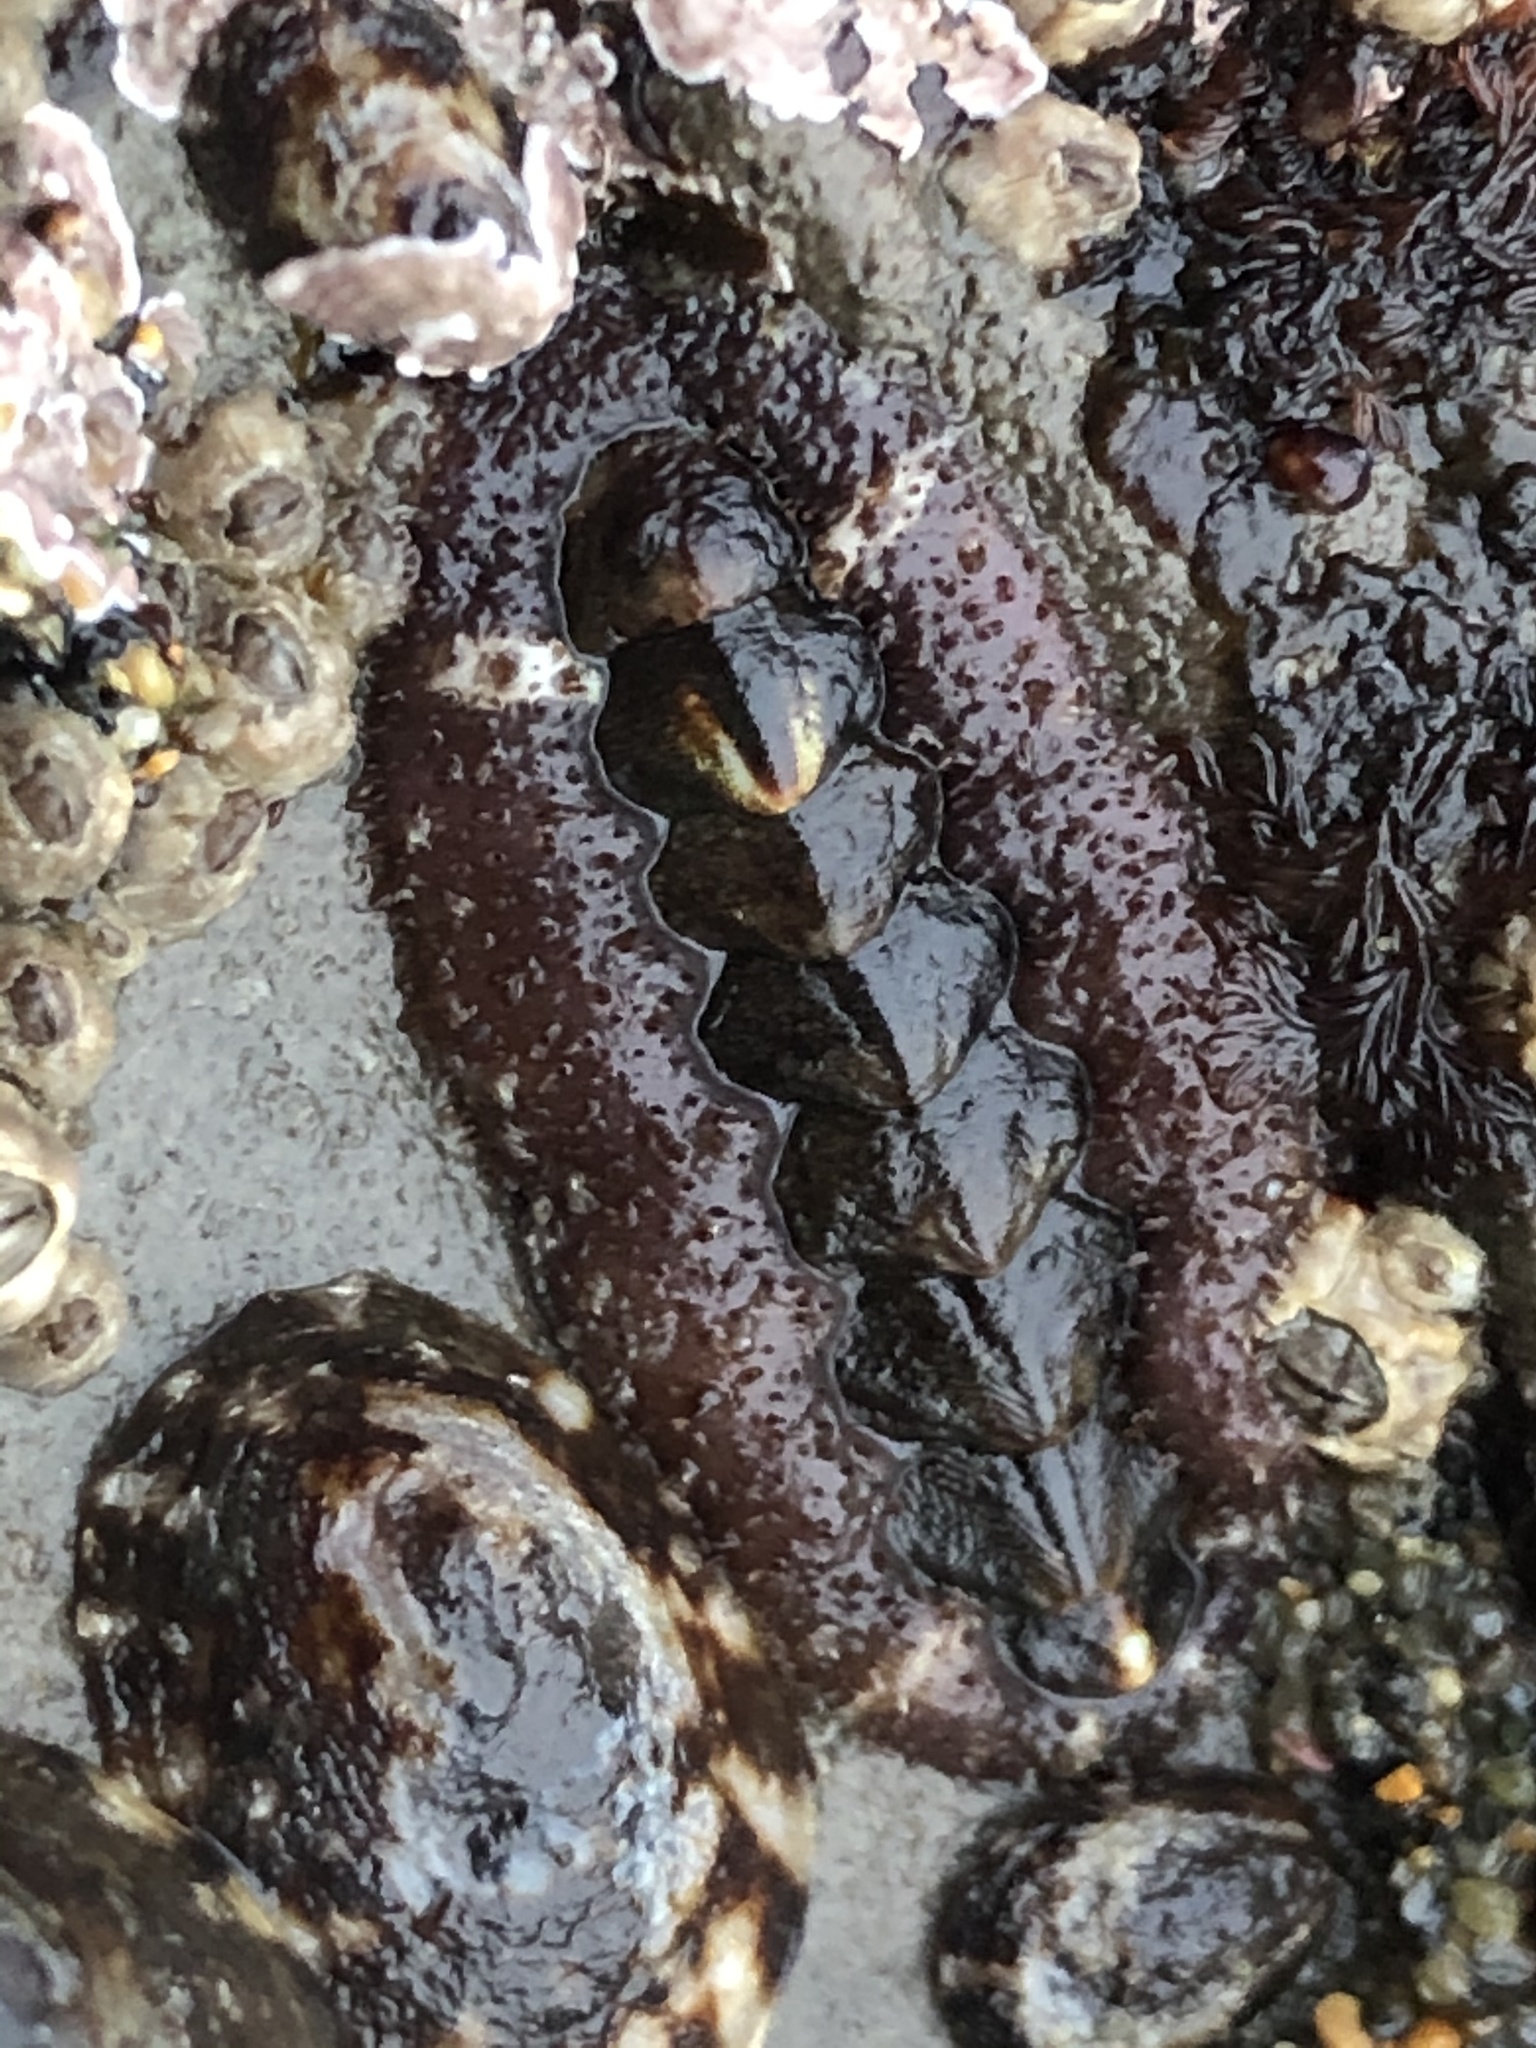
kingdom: Animalia
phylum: Mollusca
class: Polyplacophora
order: Chitonida
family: Tonicellidae
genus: Nuttallina
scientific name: Nuttallina californica
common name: California nuttall chiton
